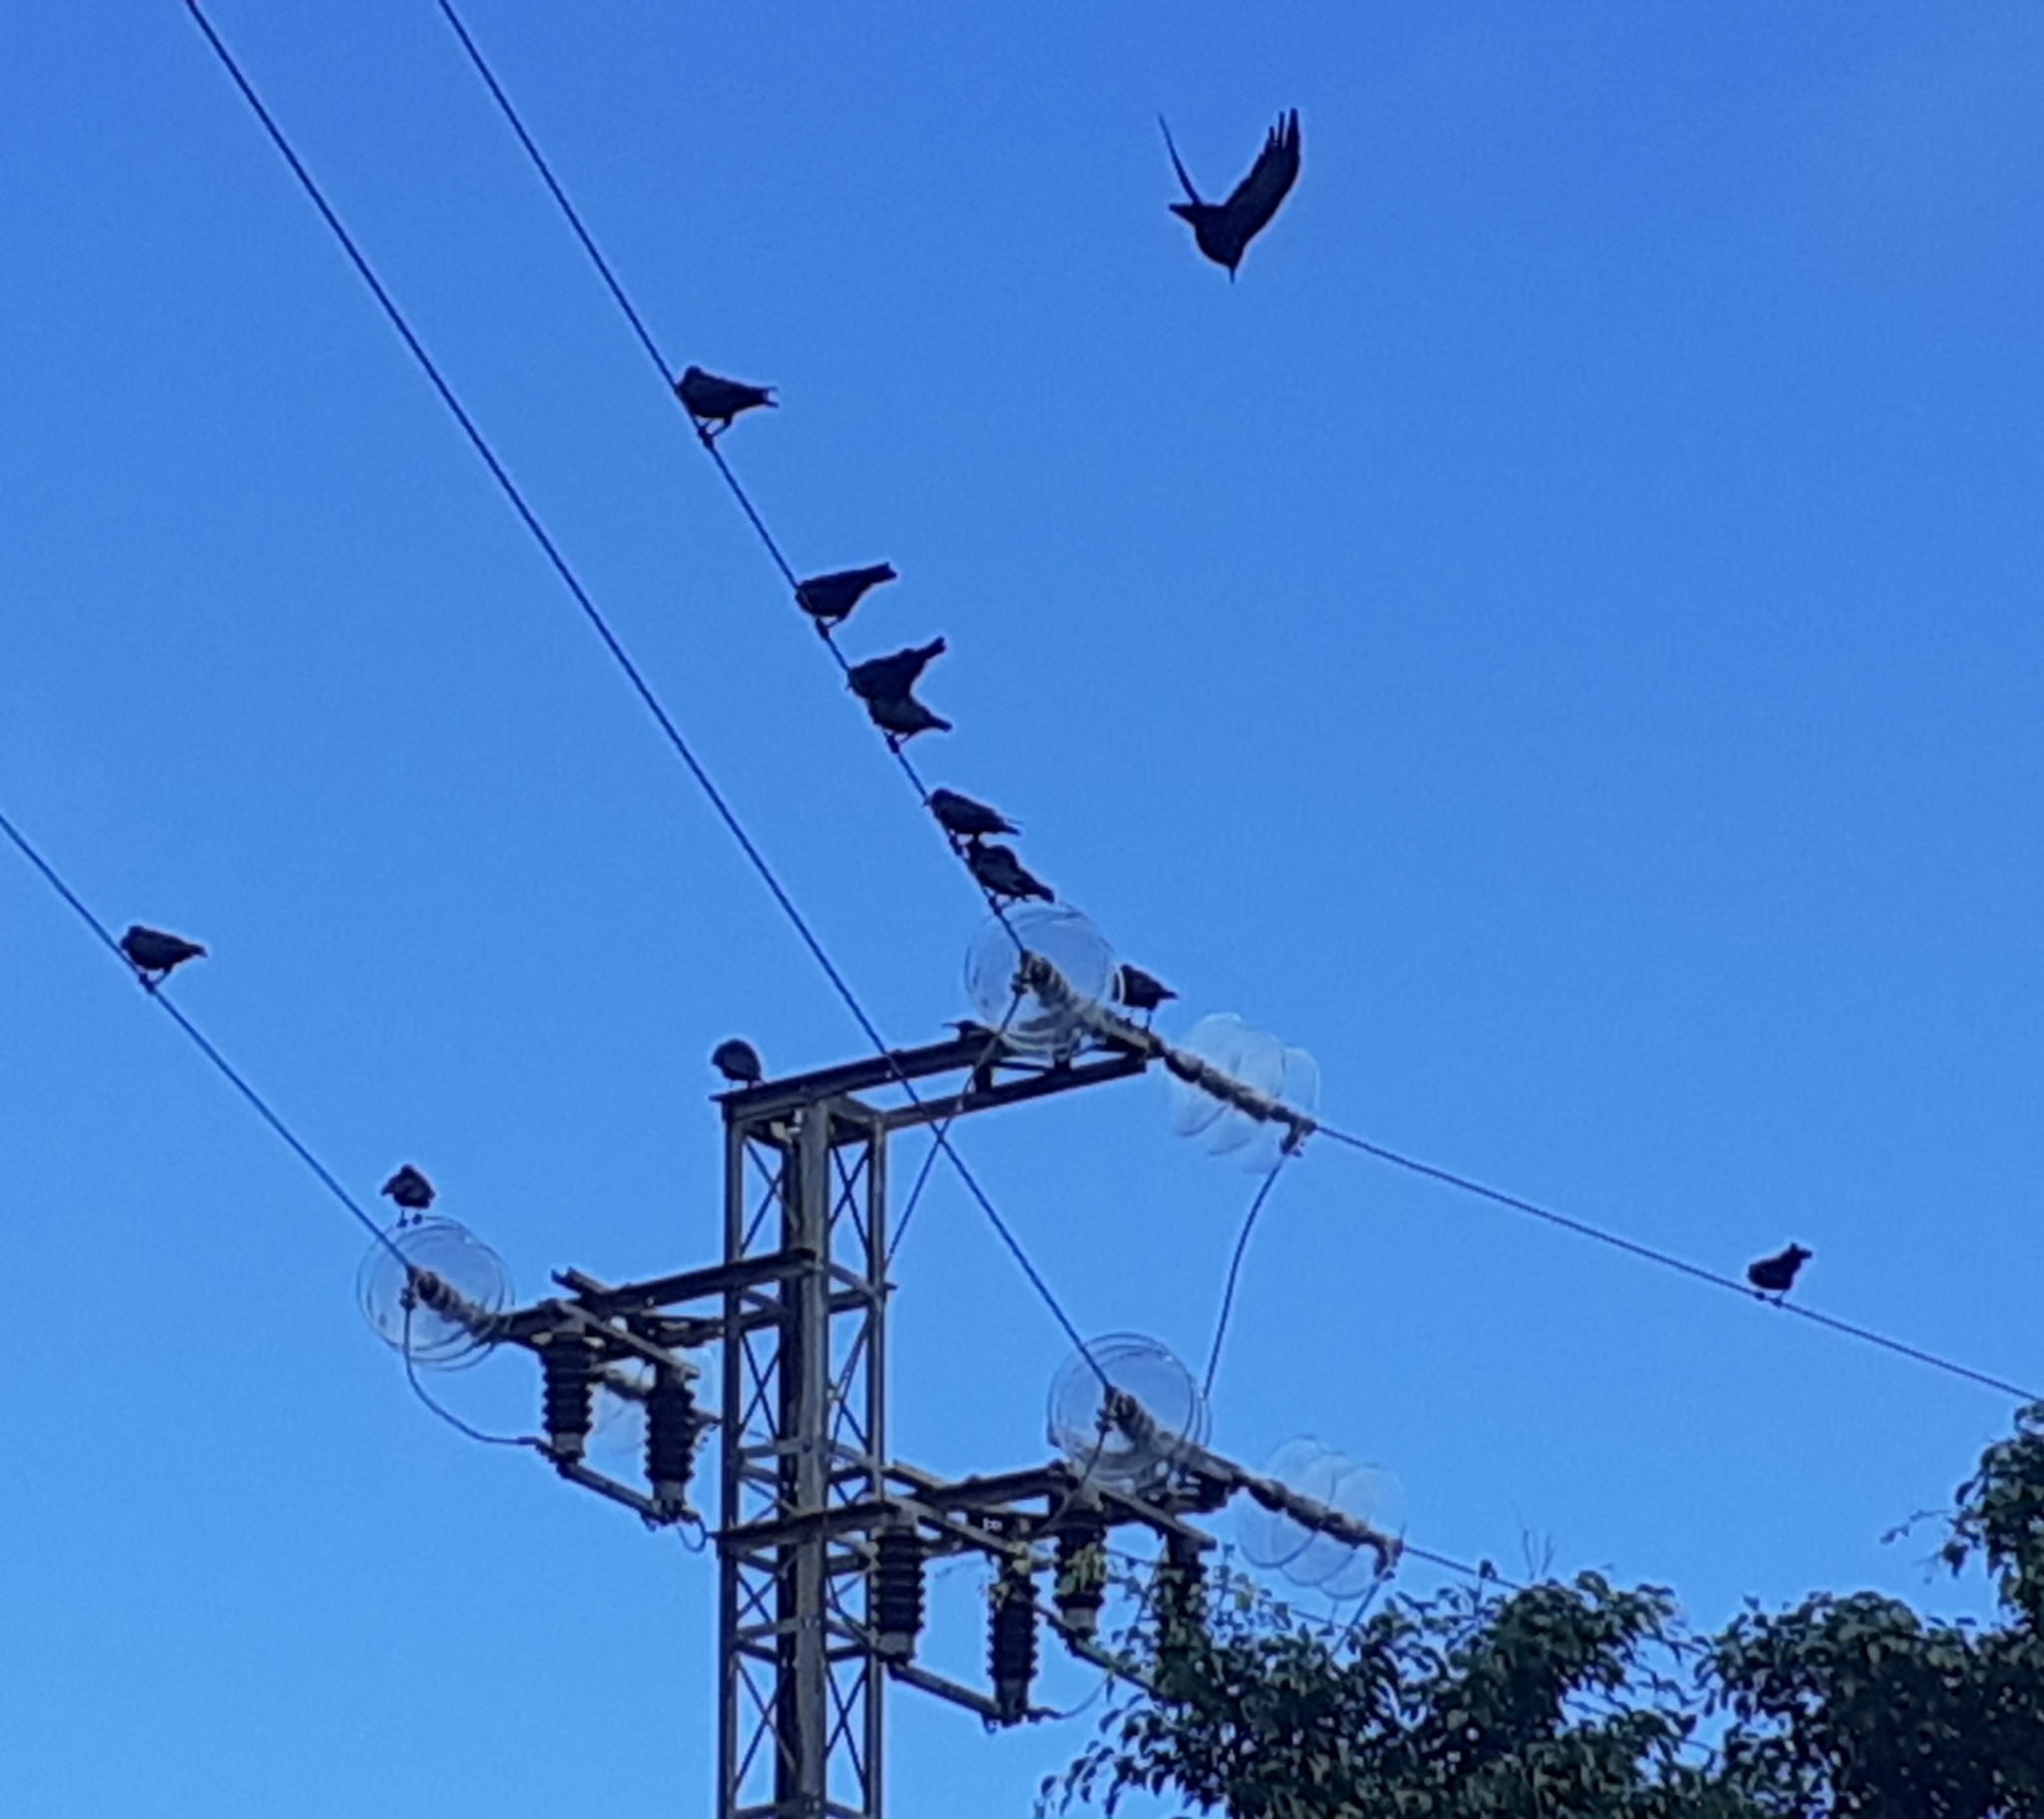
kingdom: Animalia
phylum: Chordata
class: Aves
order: Passeriformes
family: Corvidae
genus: Pyrrhocorax
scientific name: Pyrrhocorax pyrrhocorax
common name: Red-billed chough
